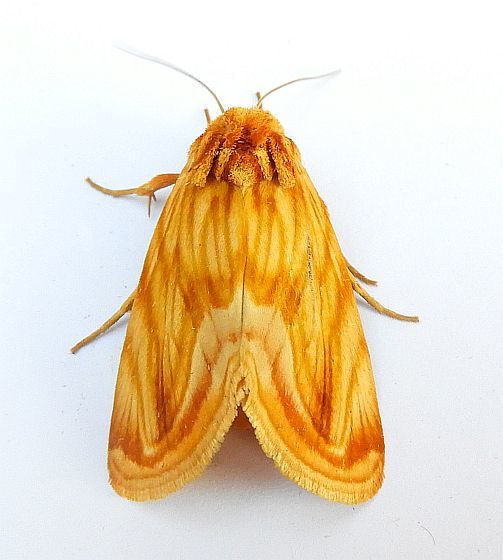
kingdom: Animalia
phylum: Arthropoda
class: Insecta
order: Lepidoptera
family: Noctuidae
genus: Cirrhophanus
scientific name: Cirrhophanus triangulifer
